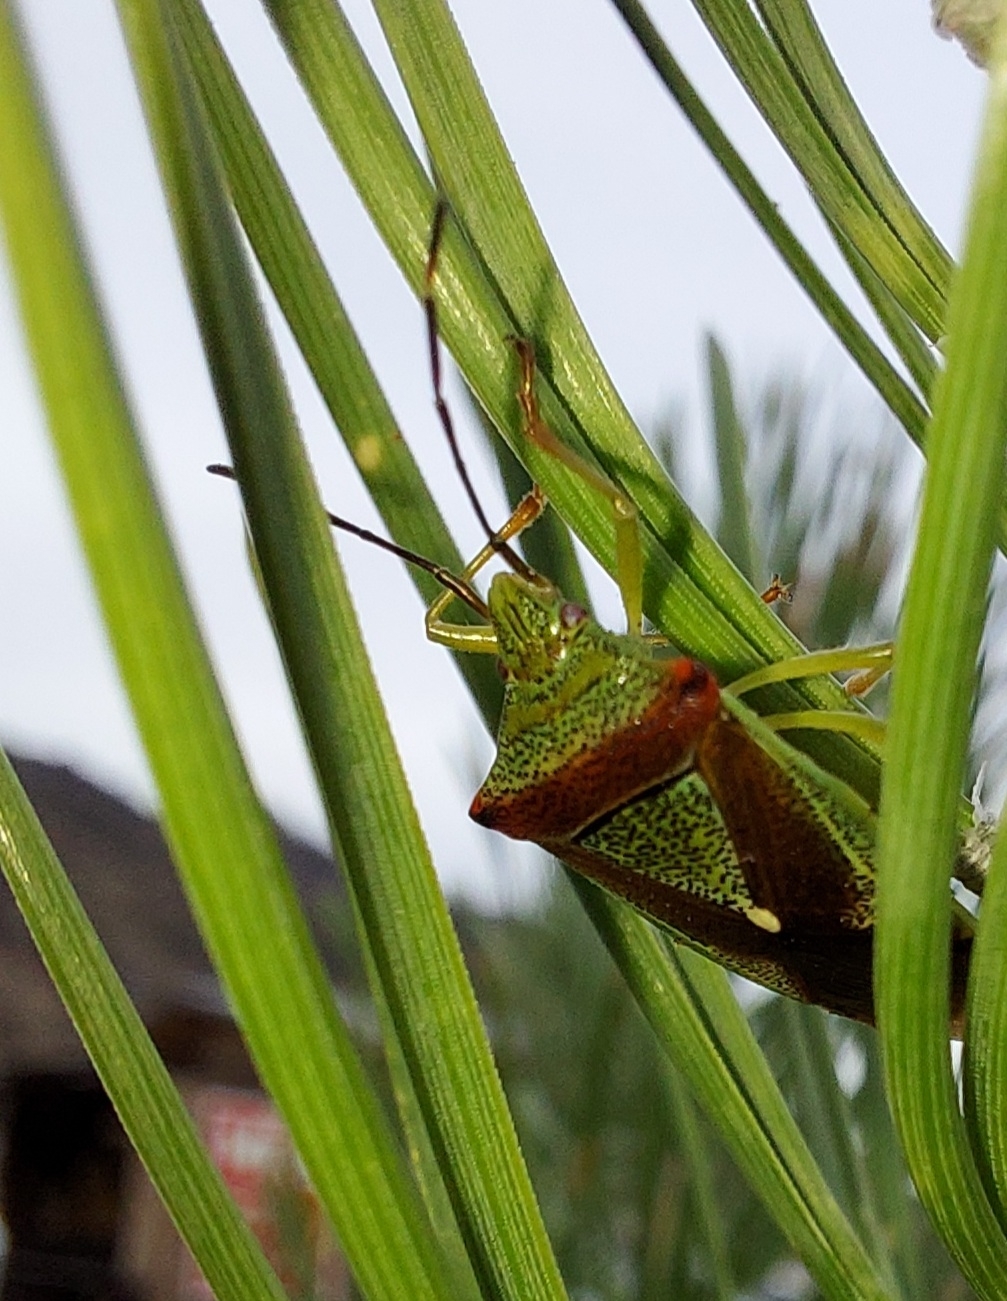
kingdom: Animalia
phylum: Arthropoda
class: Insecta
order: Hemiptera
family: Acanthosomatidae
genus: Acanthosoma
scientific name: Acanthosoma spinicolle
